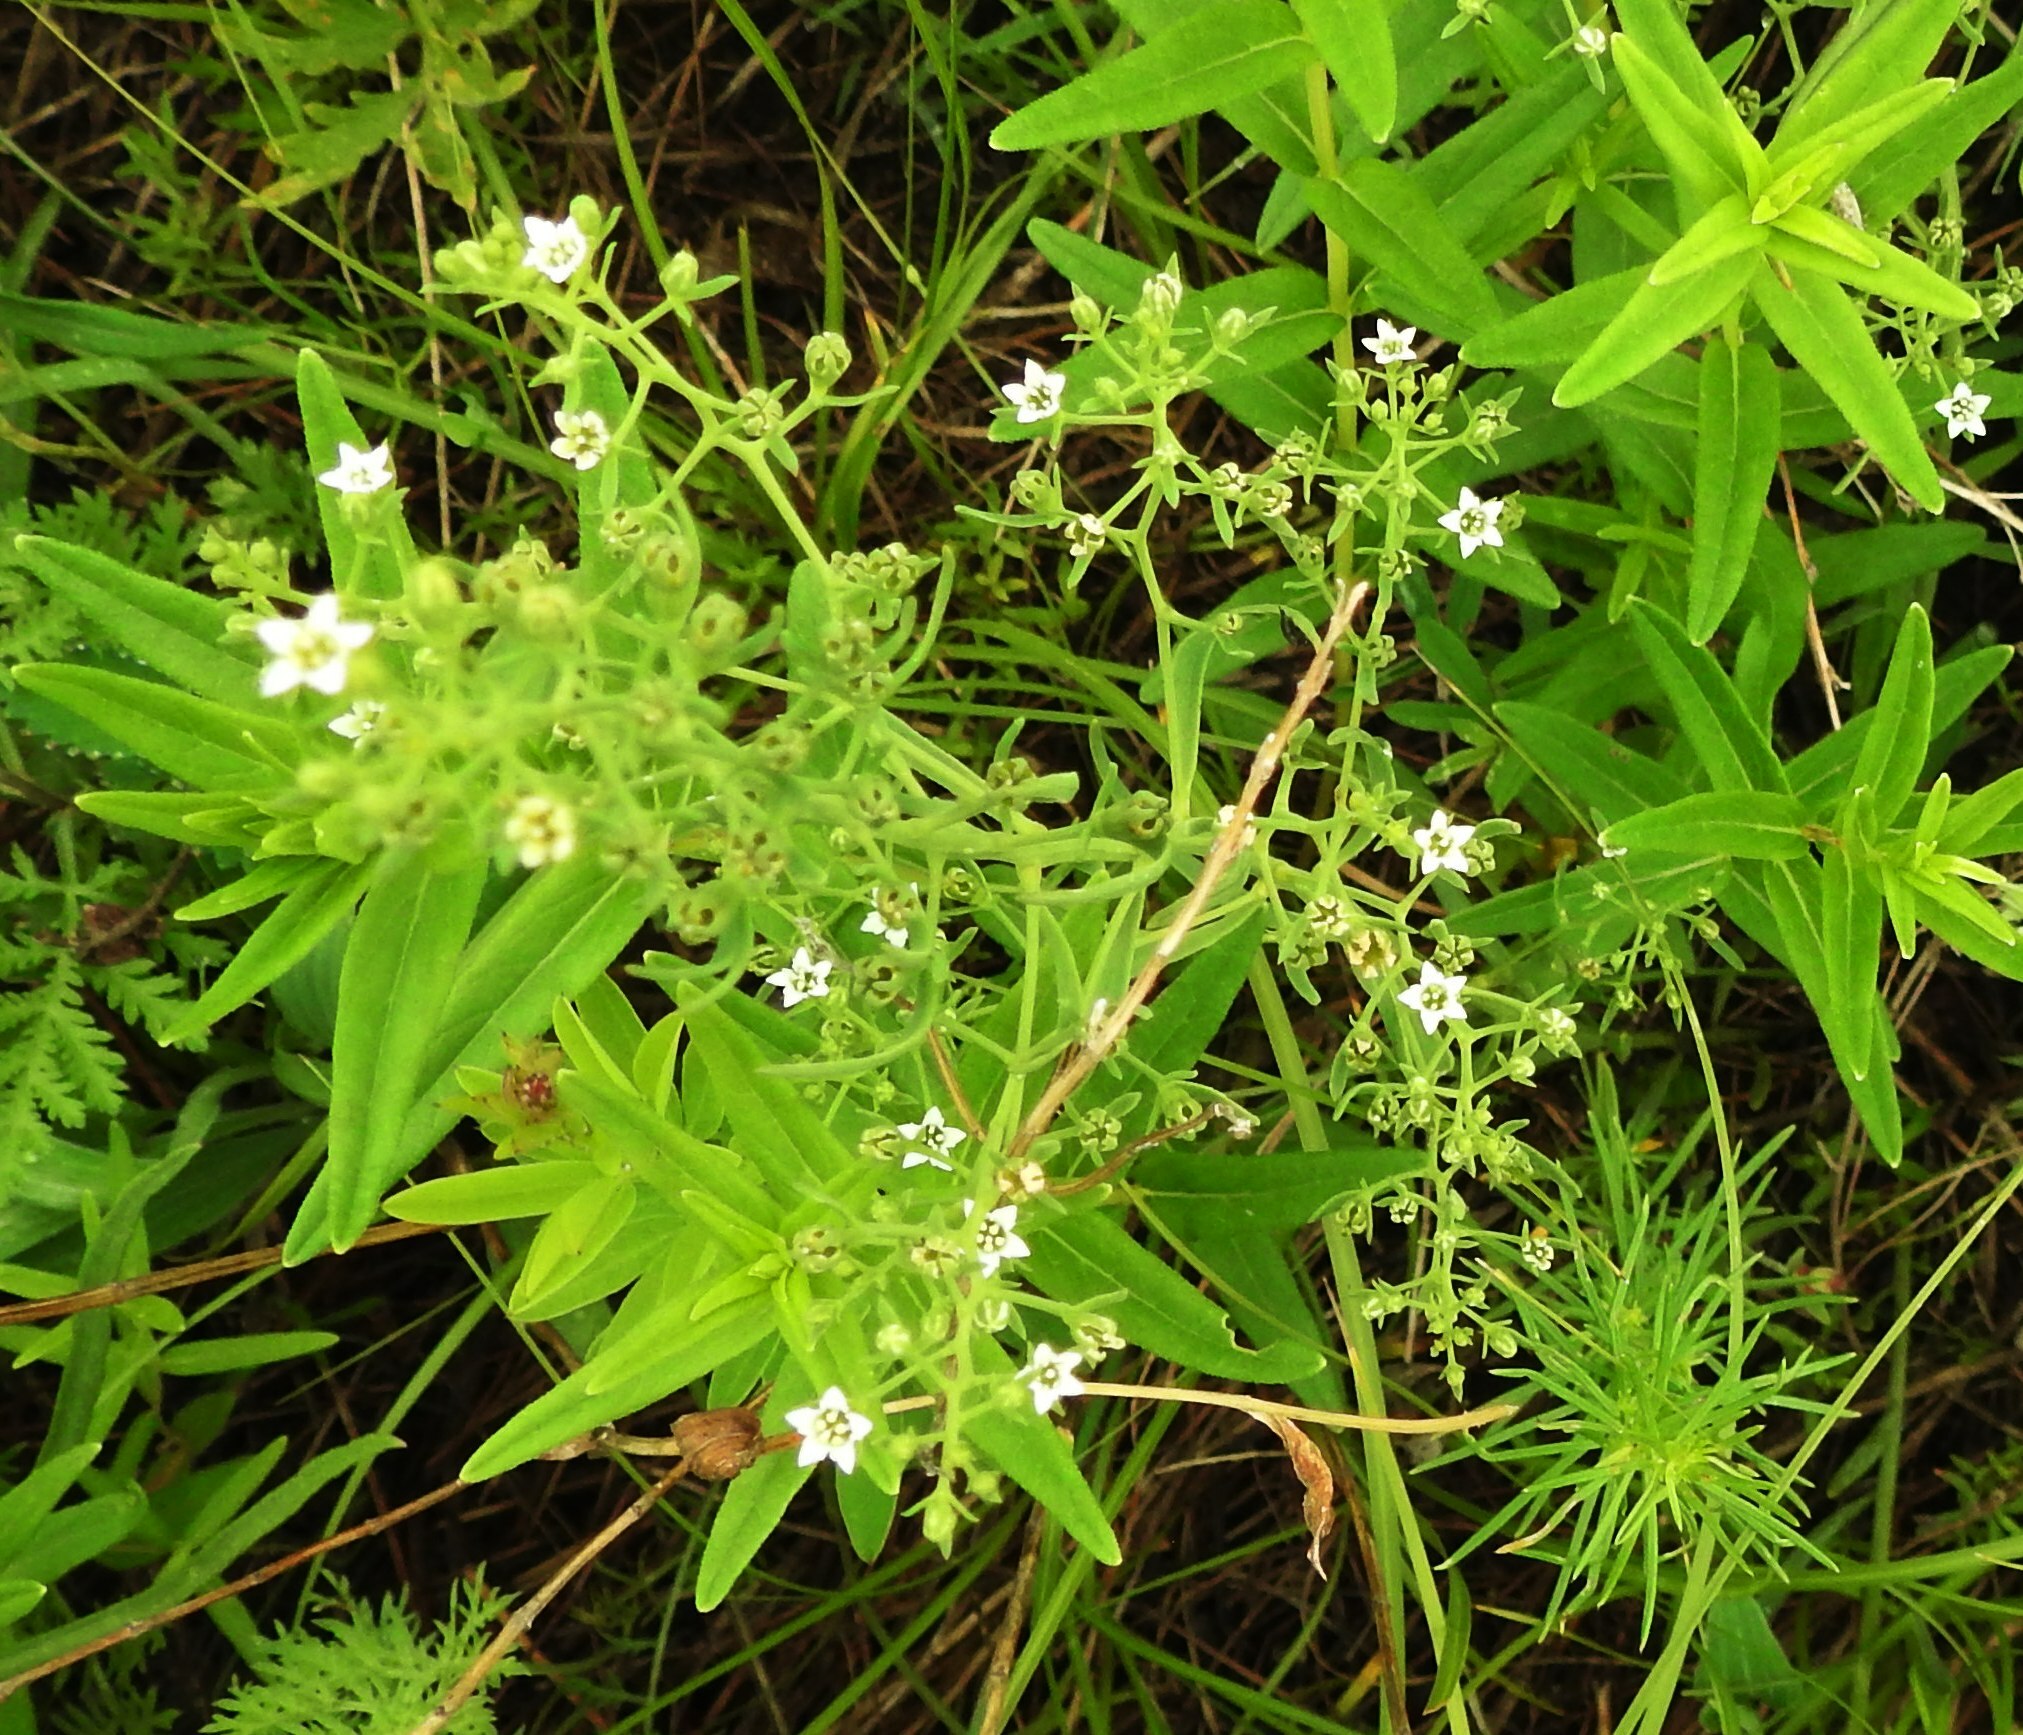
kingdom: Plantae
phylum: Tracheophyta
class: Magnoliopsida
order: Santalales
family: Thesiaceae
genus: Thesium
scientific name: Thesium refractum
